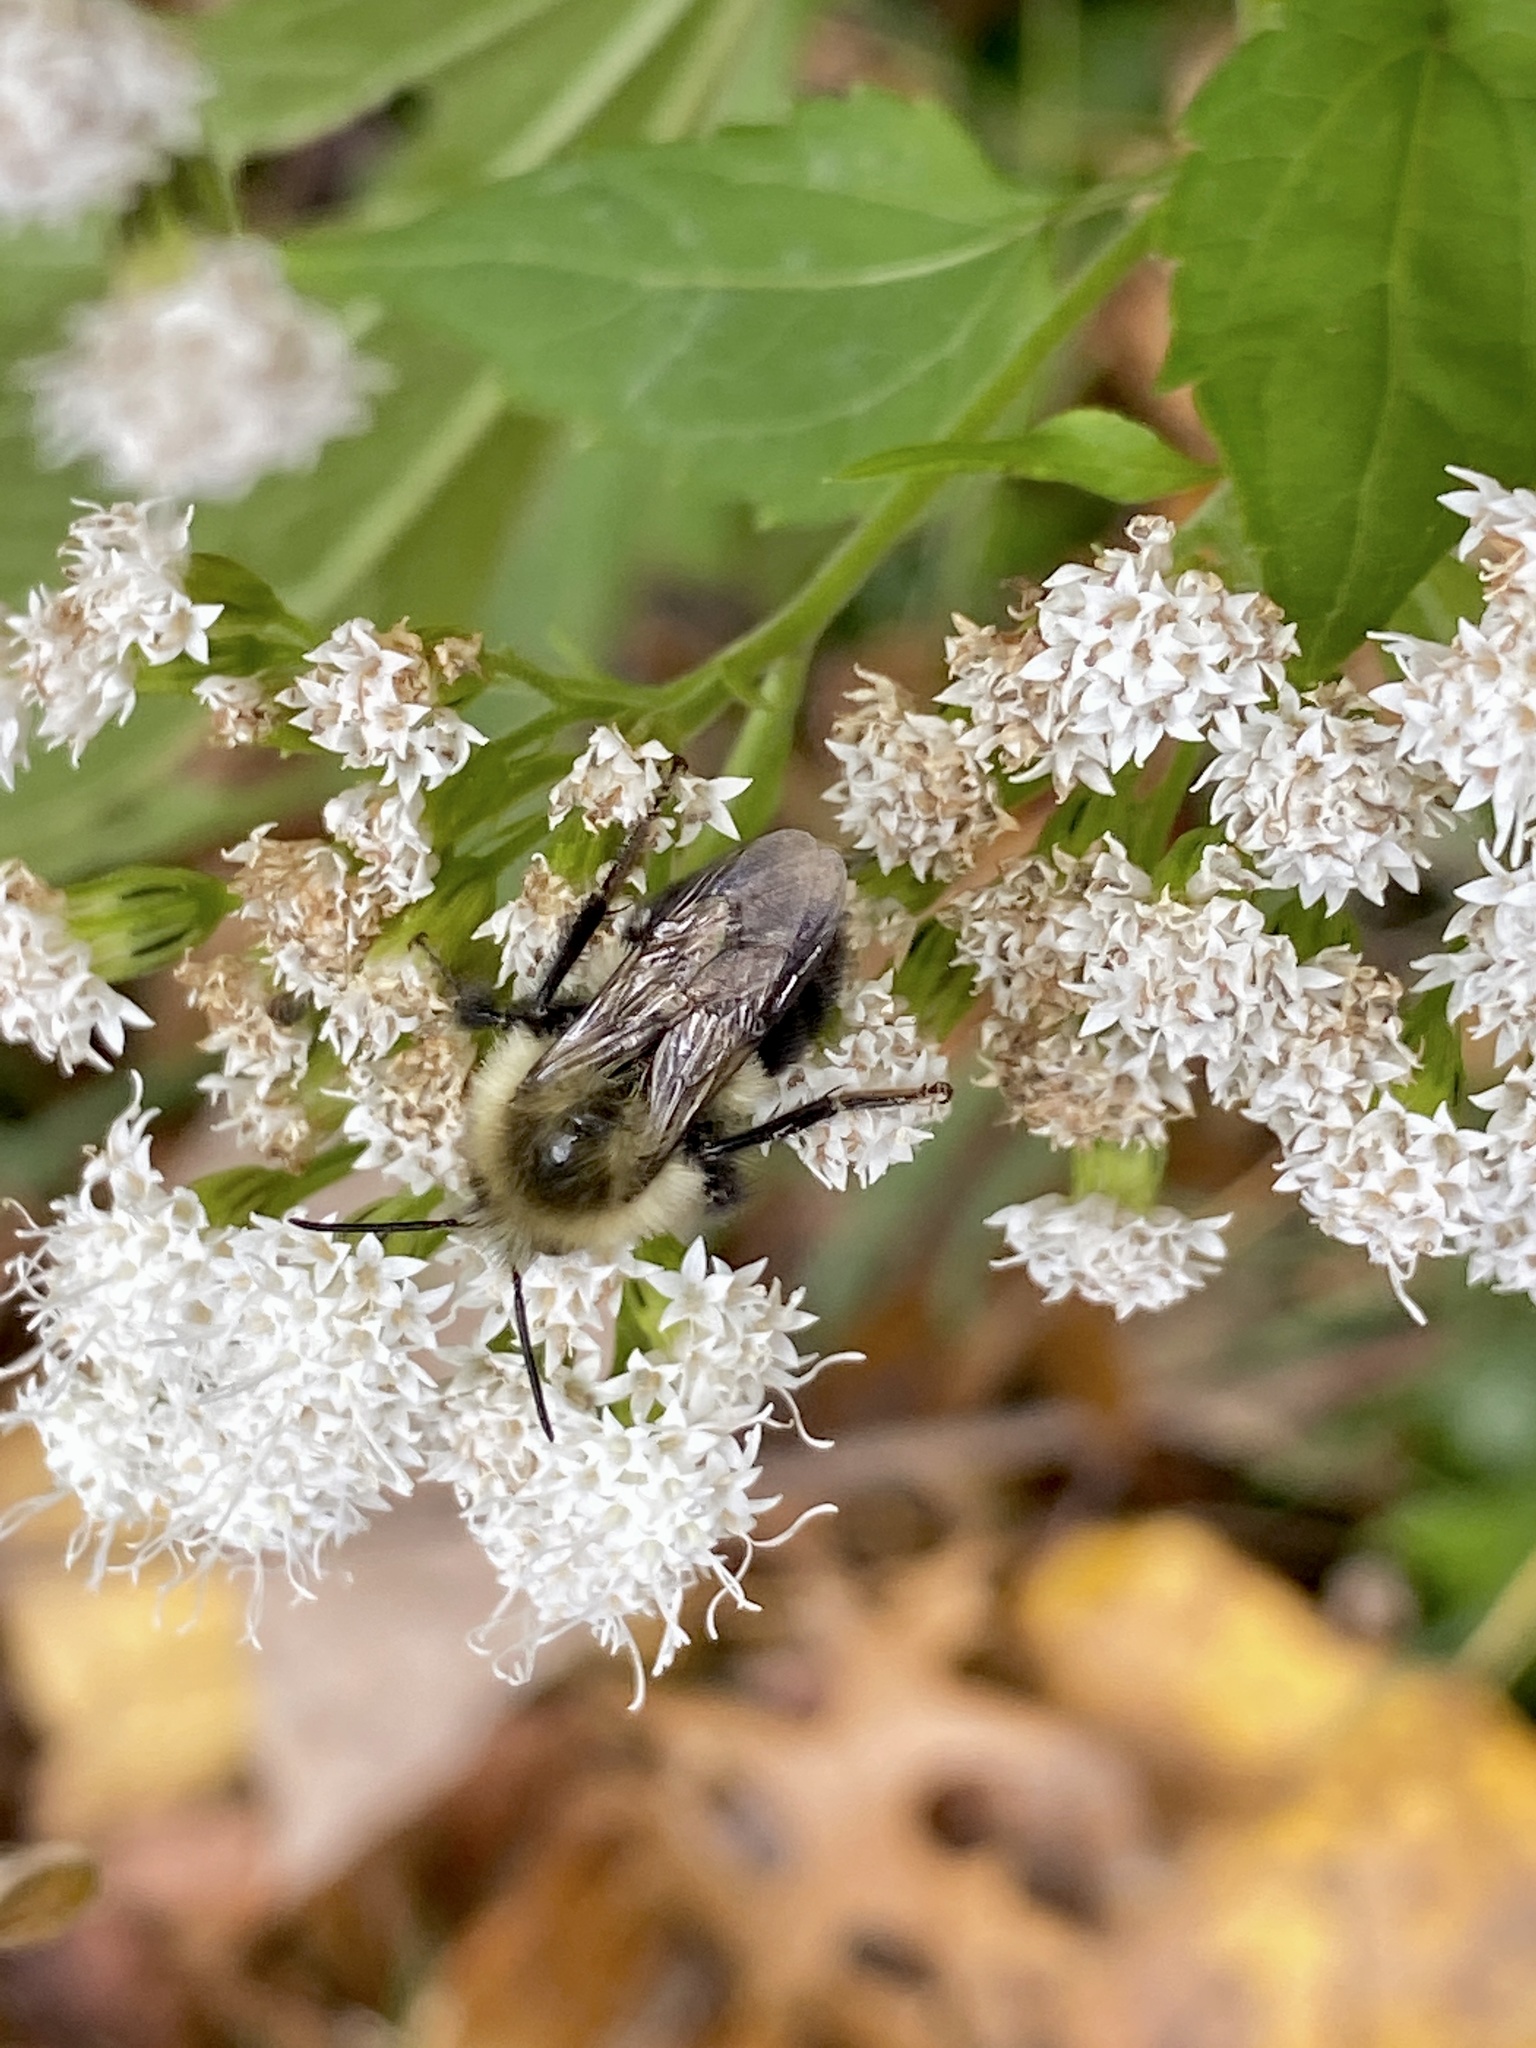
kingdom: Animalia
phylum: Arthropoda
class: Insecta
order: Hymenoptera
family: Apidae
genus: Bombus
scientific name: Bombus impatiens
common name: Common eastern bumble bee
